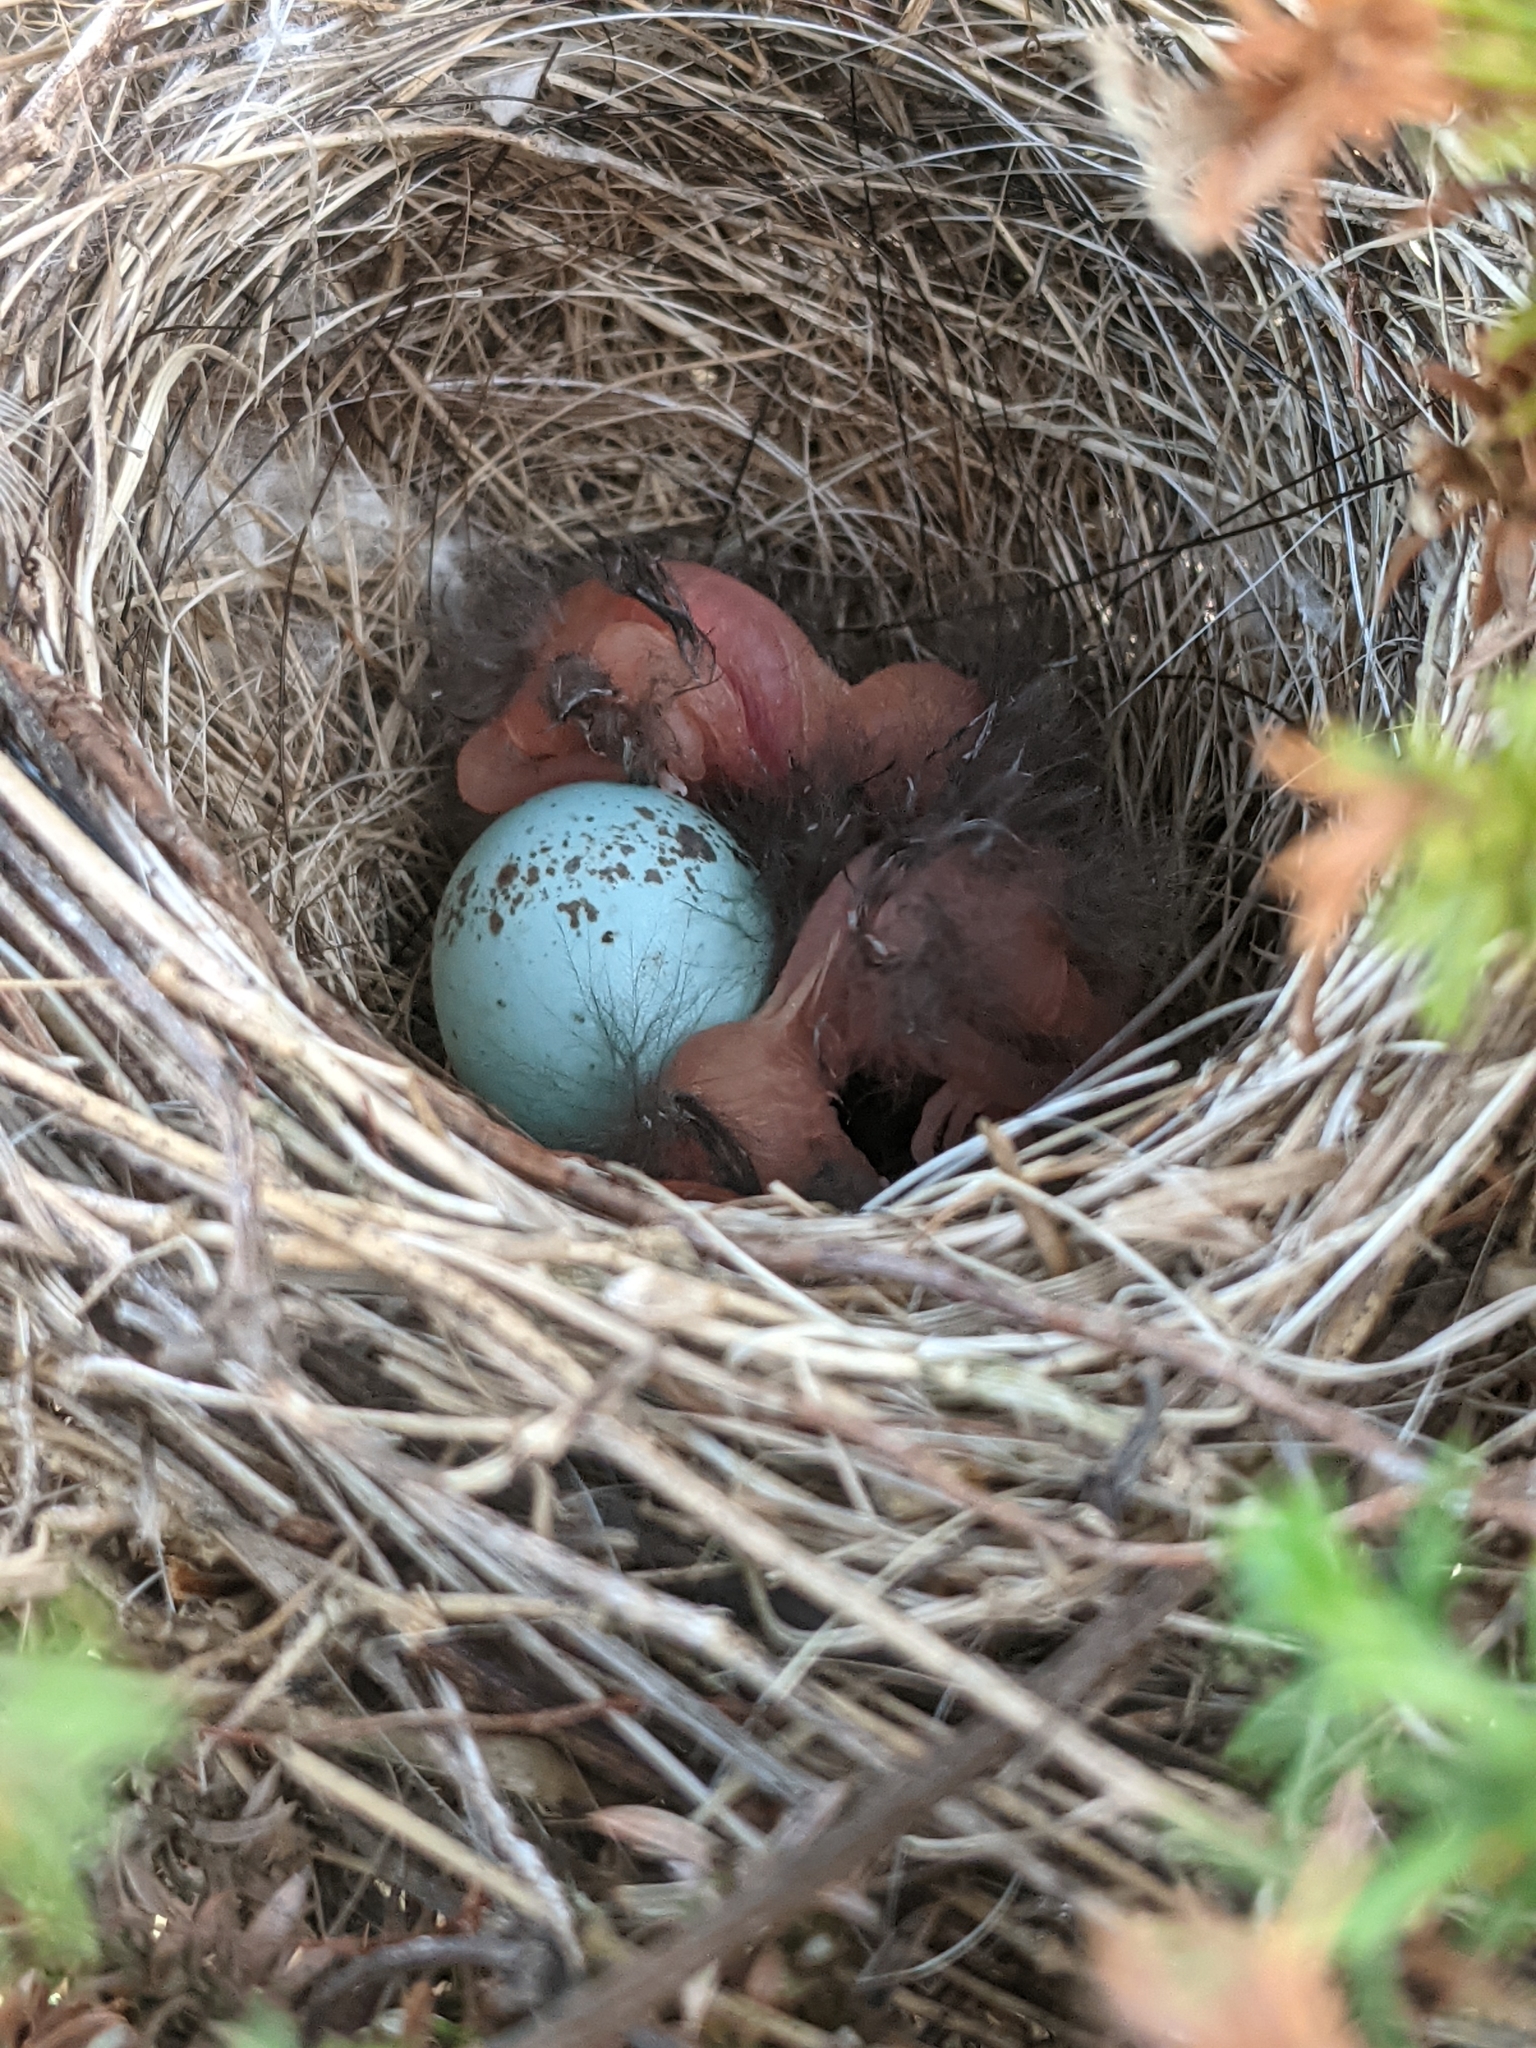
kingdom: Animalia
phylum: Chordata
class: Aves
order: Passeriformes
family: Passerellidae
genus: Spizella
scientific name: Spizella passerina
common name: Chipping sparrow
